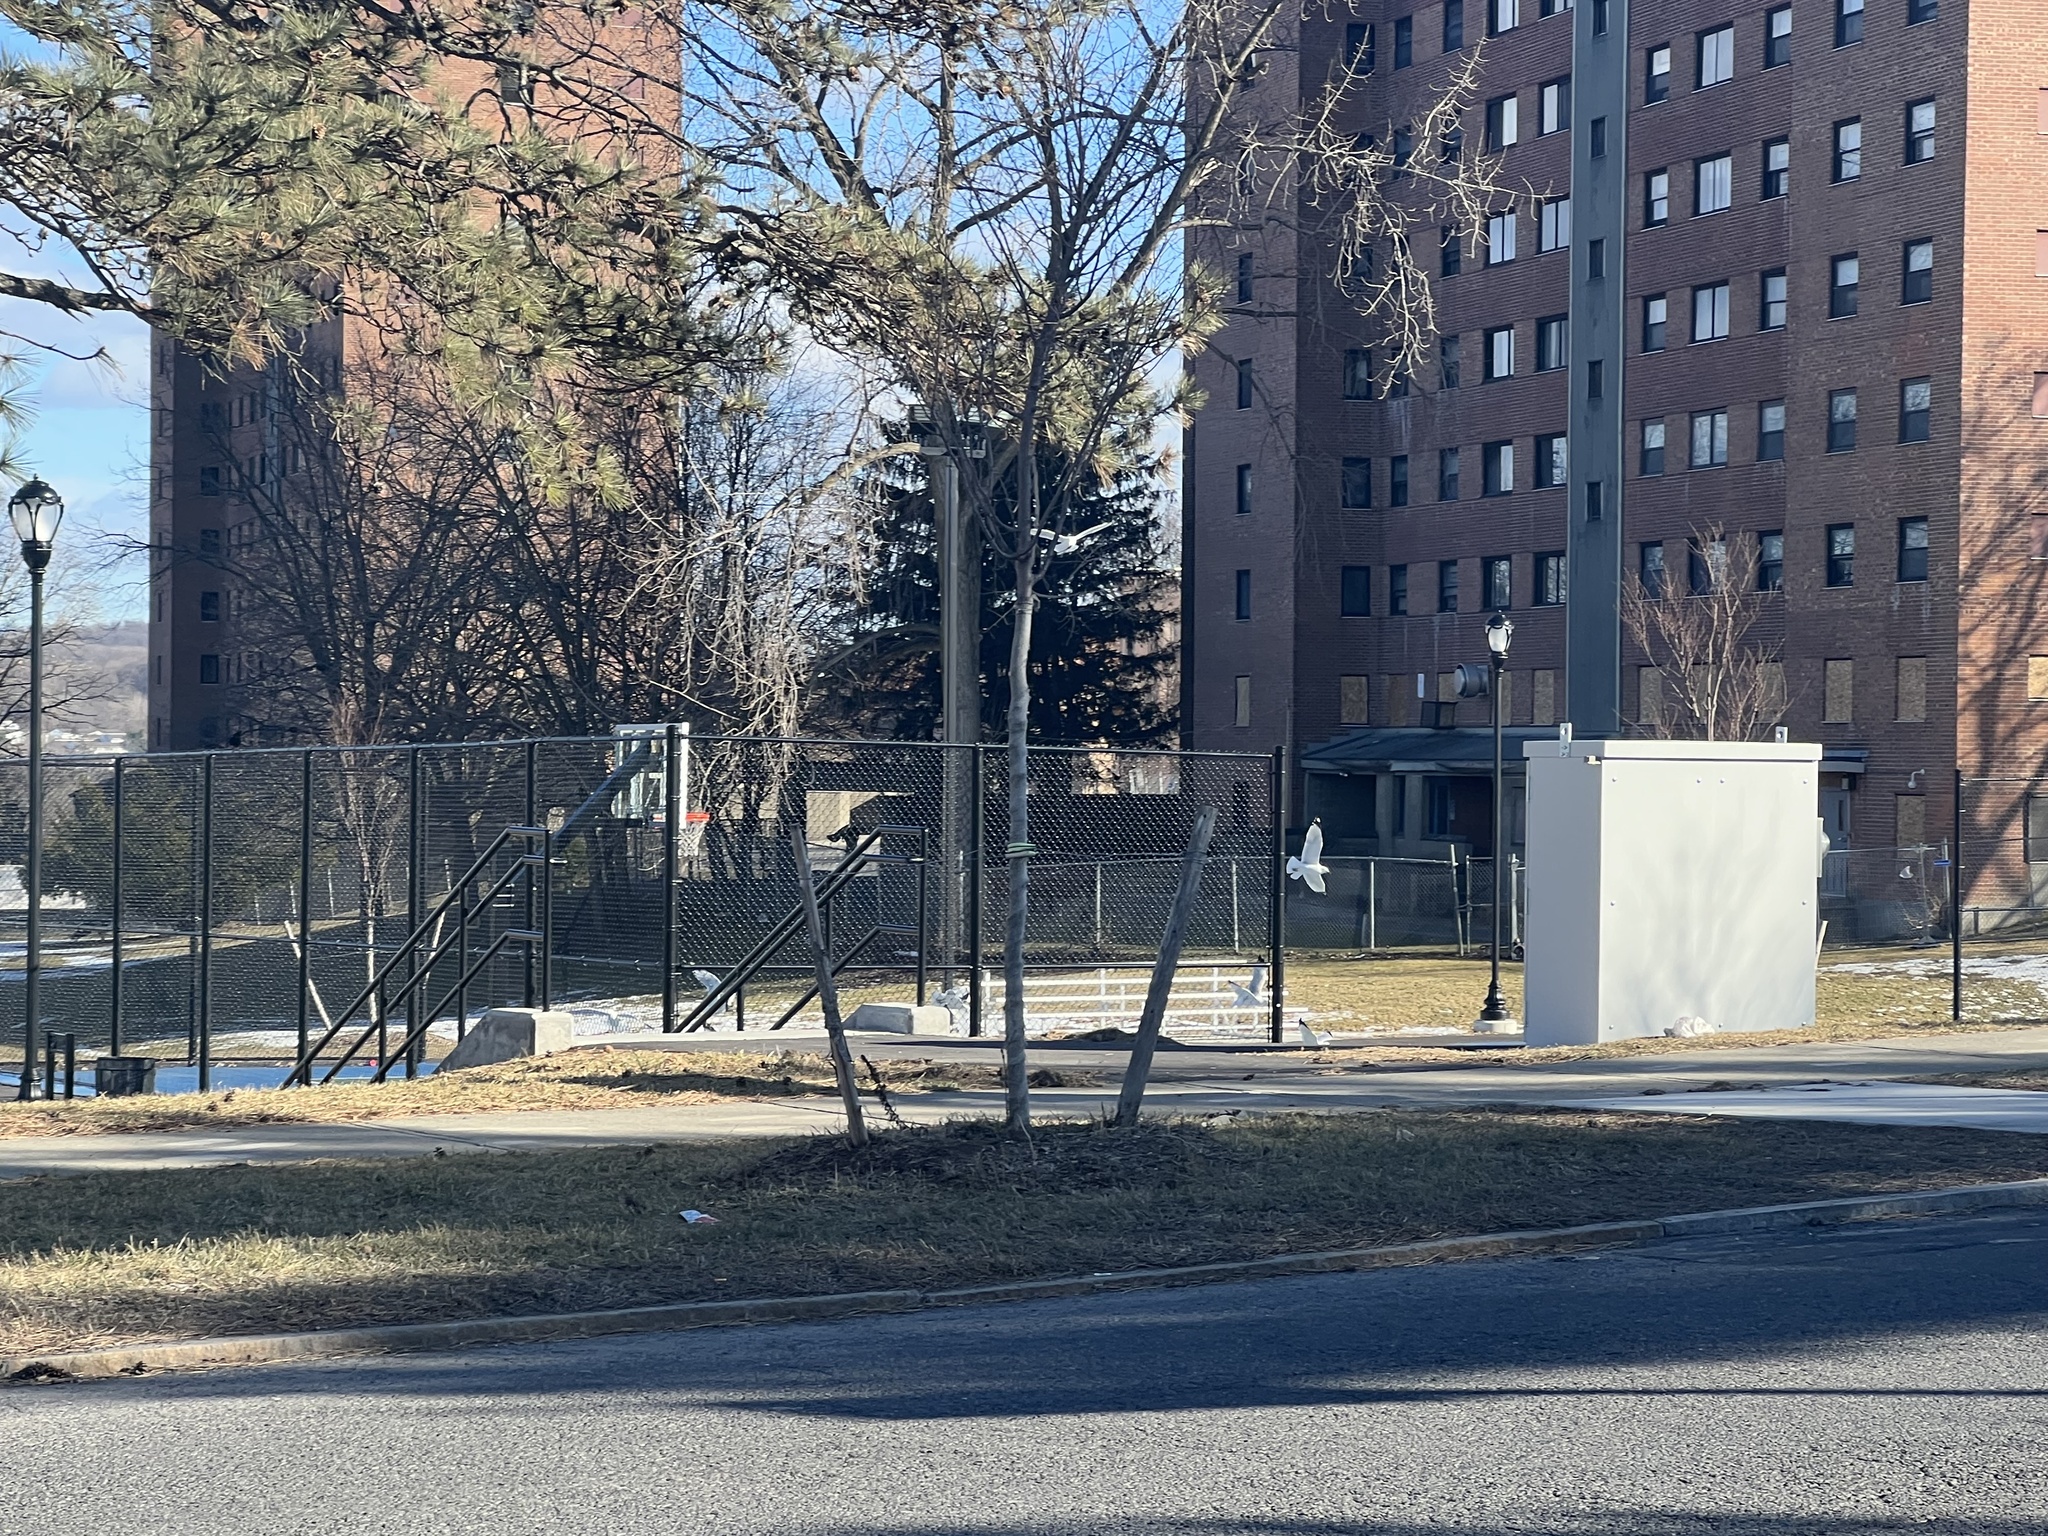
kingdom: Animalia
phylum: Chordata
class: Aves
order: Charadriiformes
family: Laridae
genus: Larus
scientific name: Larus delawarensis
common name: Ring-billed gull
